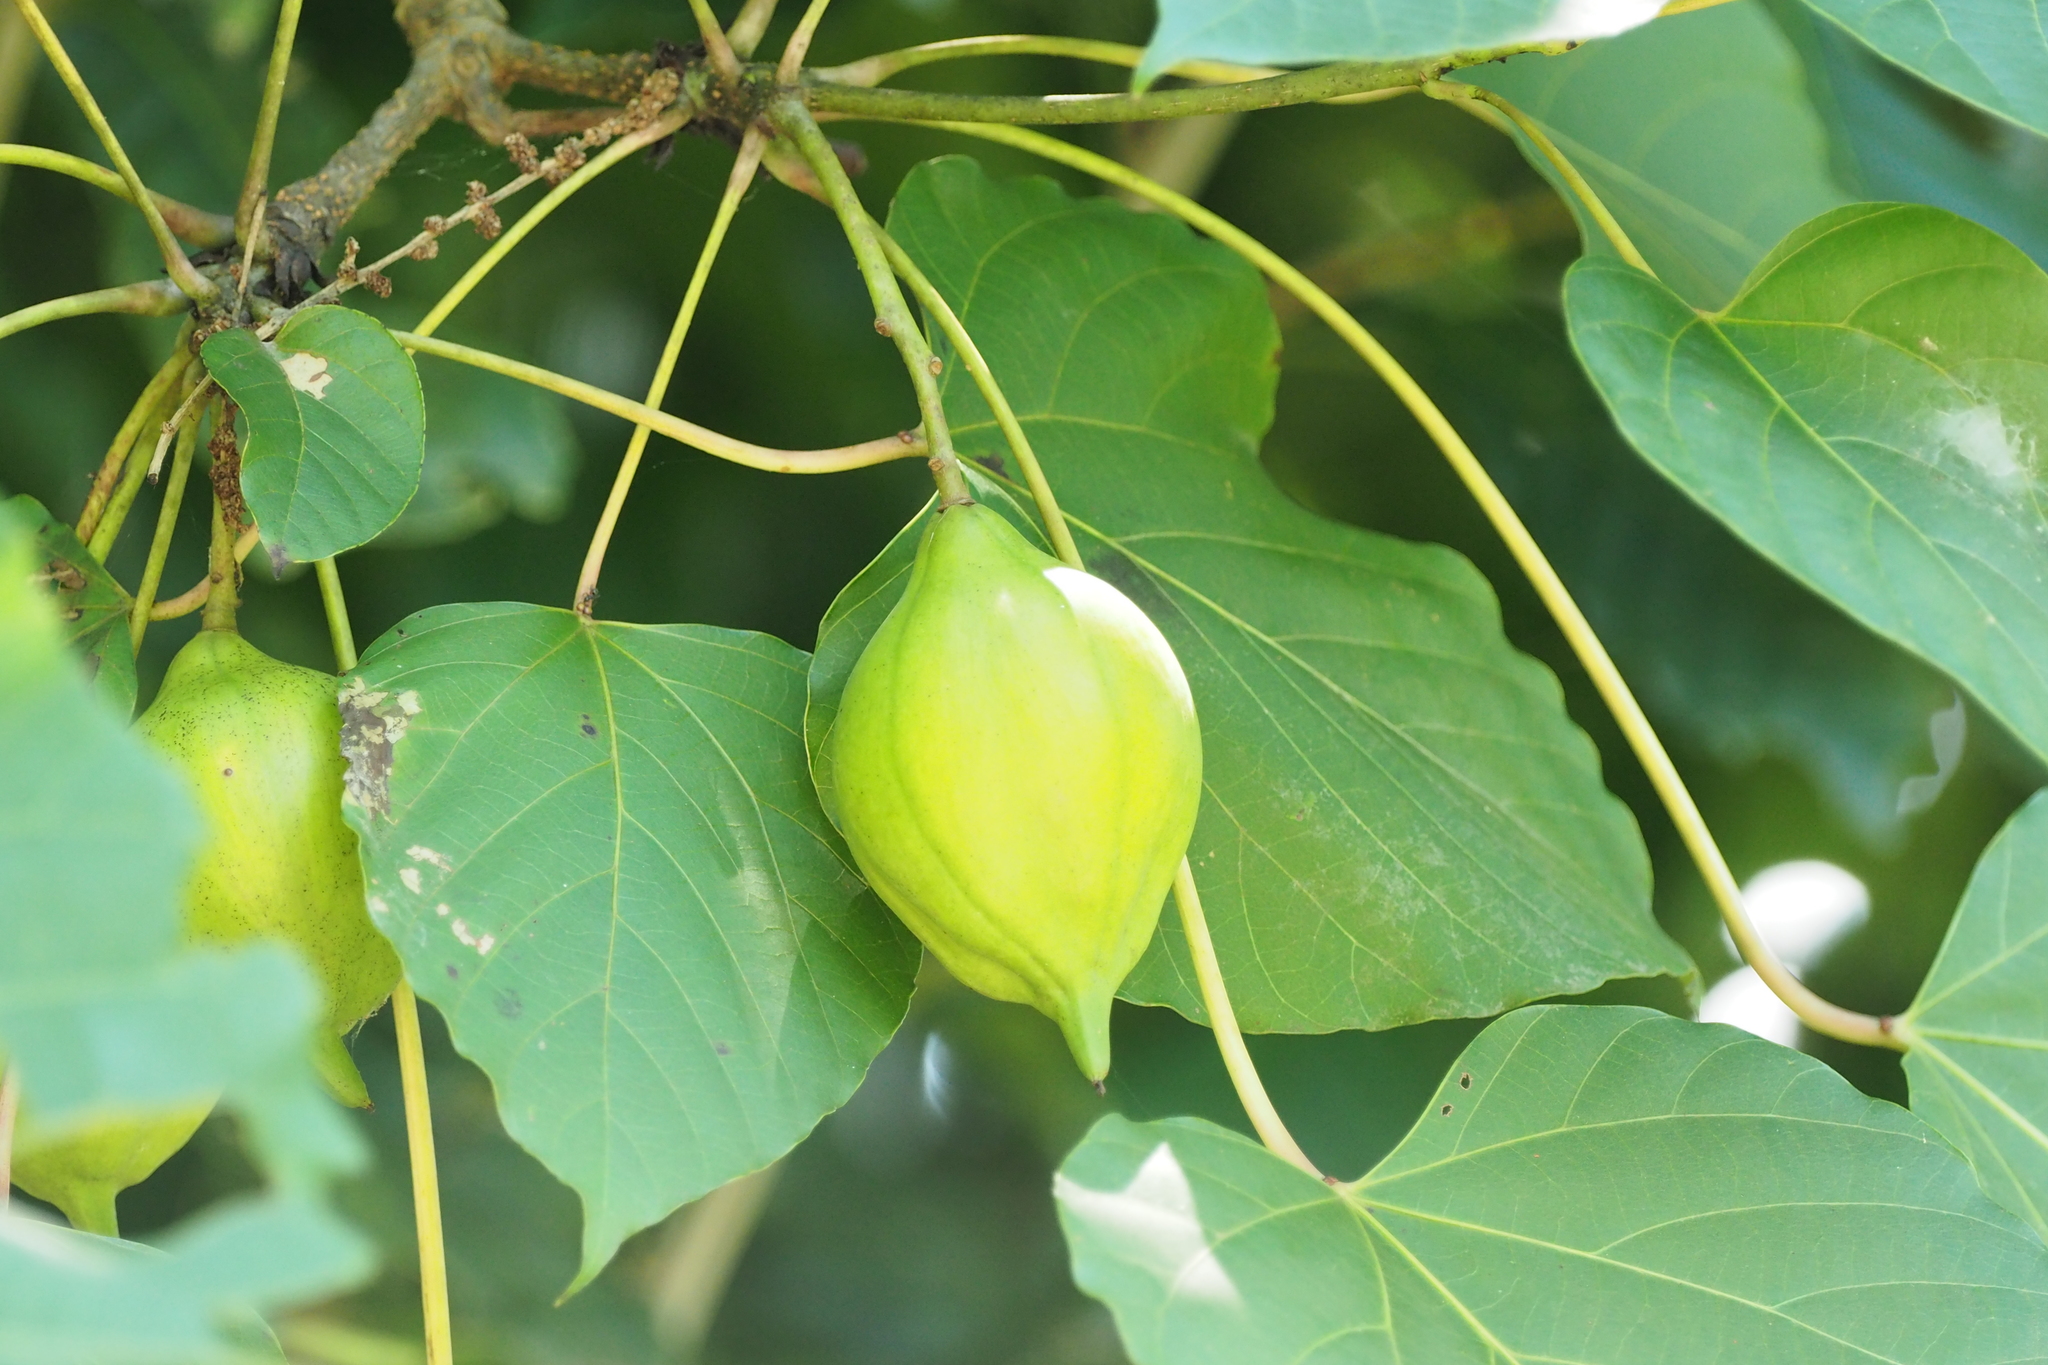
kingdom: Plantae
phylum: Tracheophyta
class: Magnoliopsida
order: Malpighiales
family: Euphorbiaceae
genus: Vernicia
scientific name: Vernicia fordii
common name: Tungoil tree
